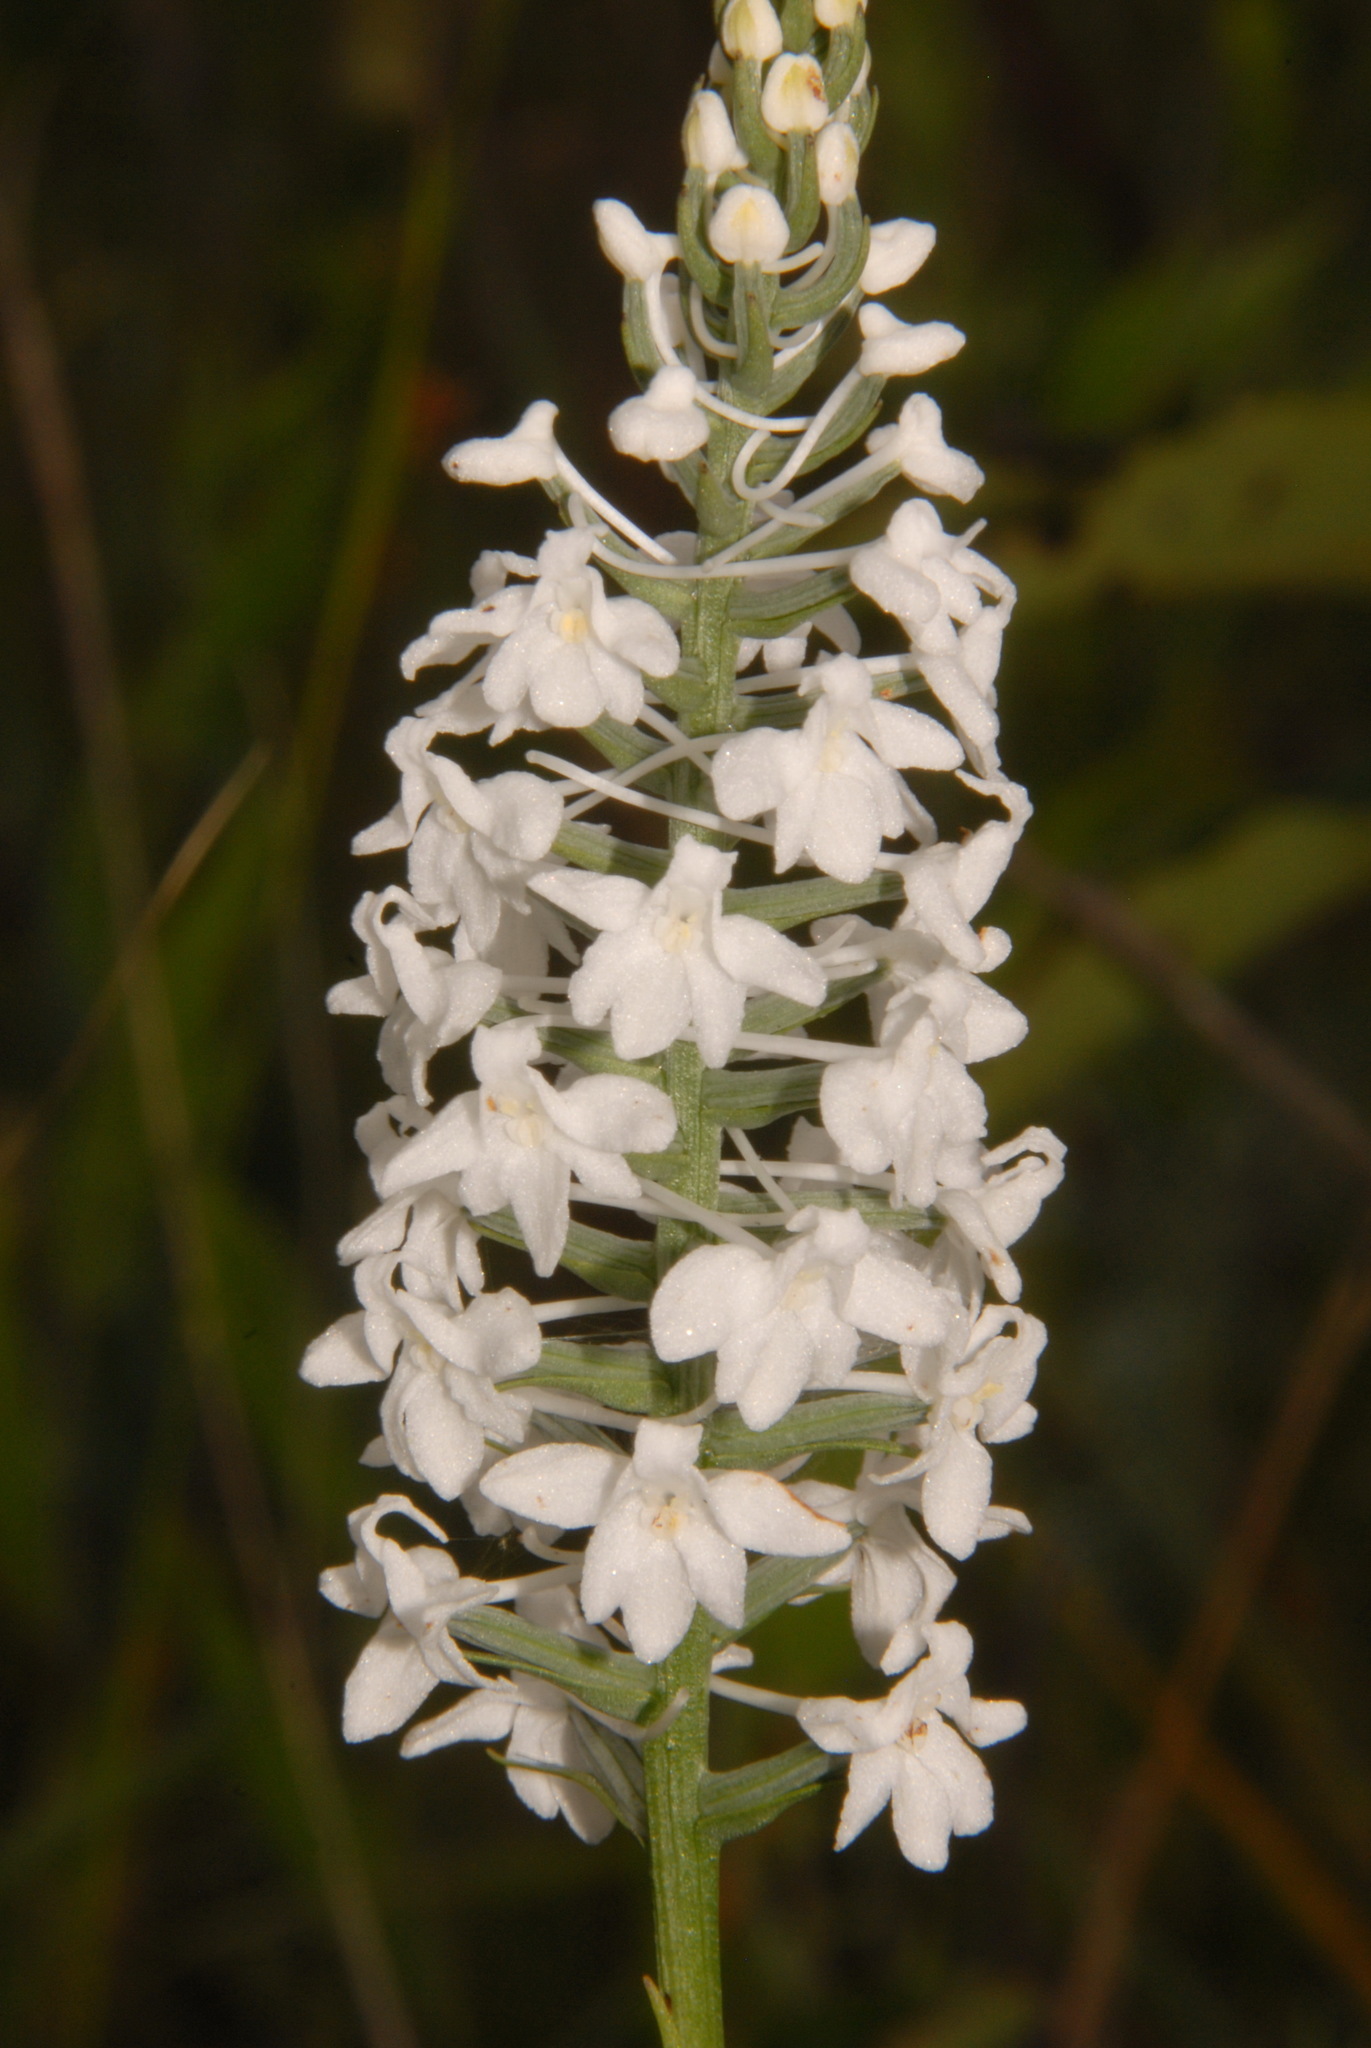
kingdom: Plantae
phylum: Tracheophyta
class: Liliopsida
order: Asparagales
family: Orchidaceae
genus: Platanthera
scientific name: Platanthera nivea
